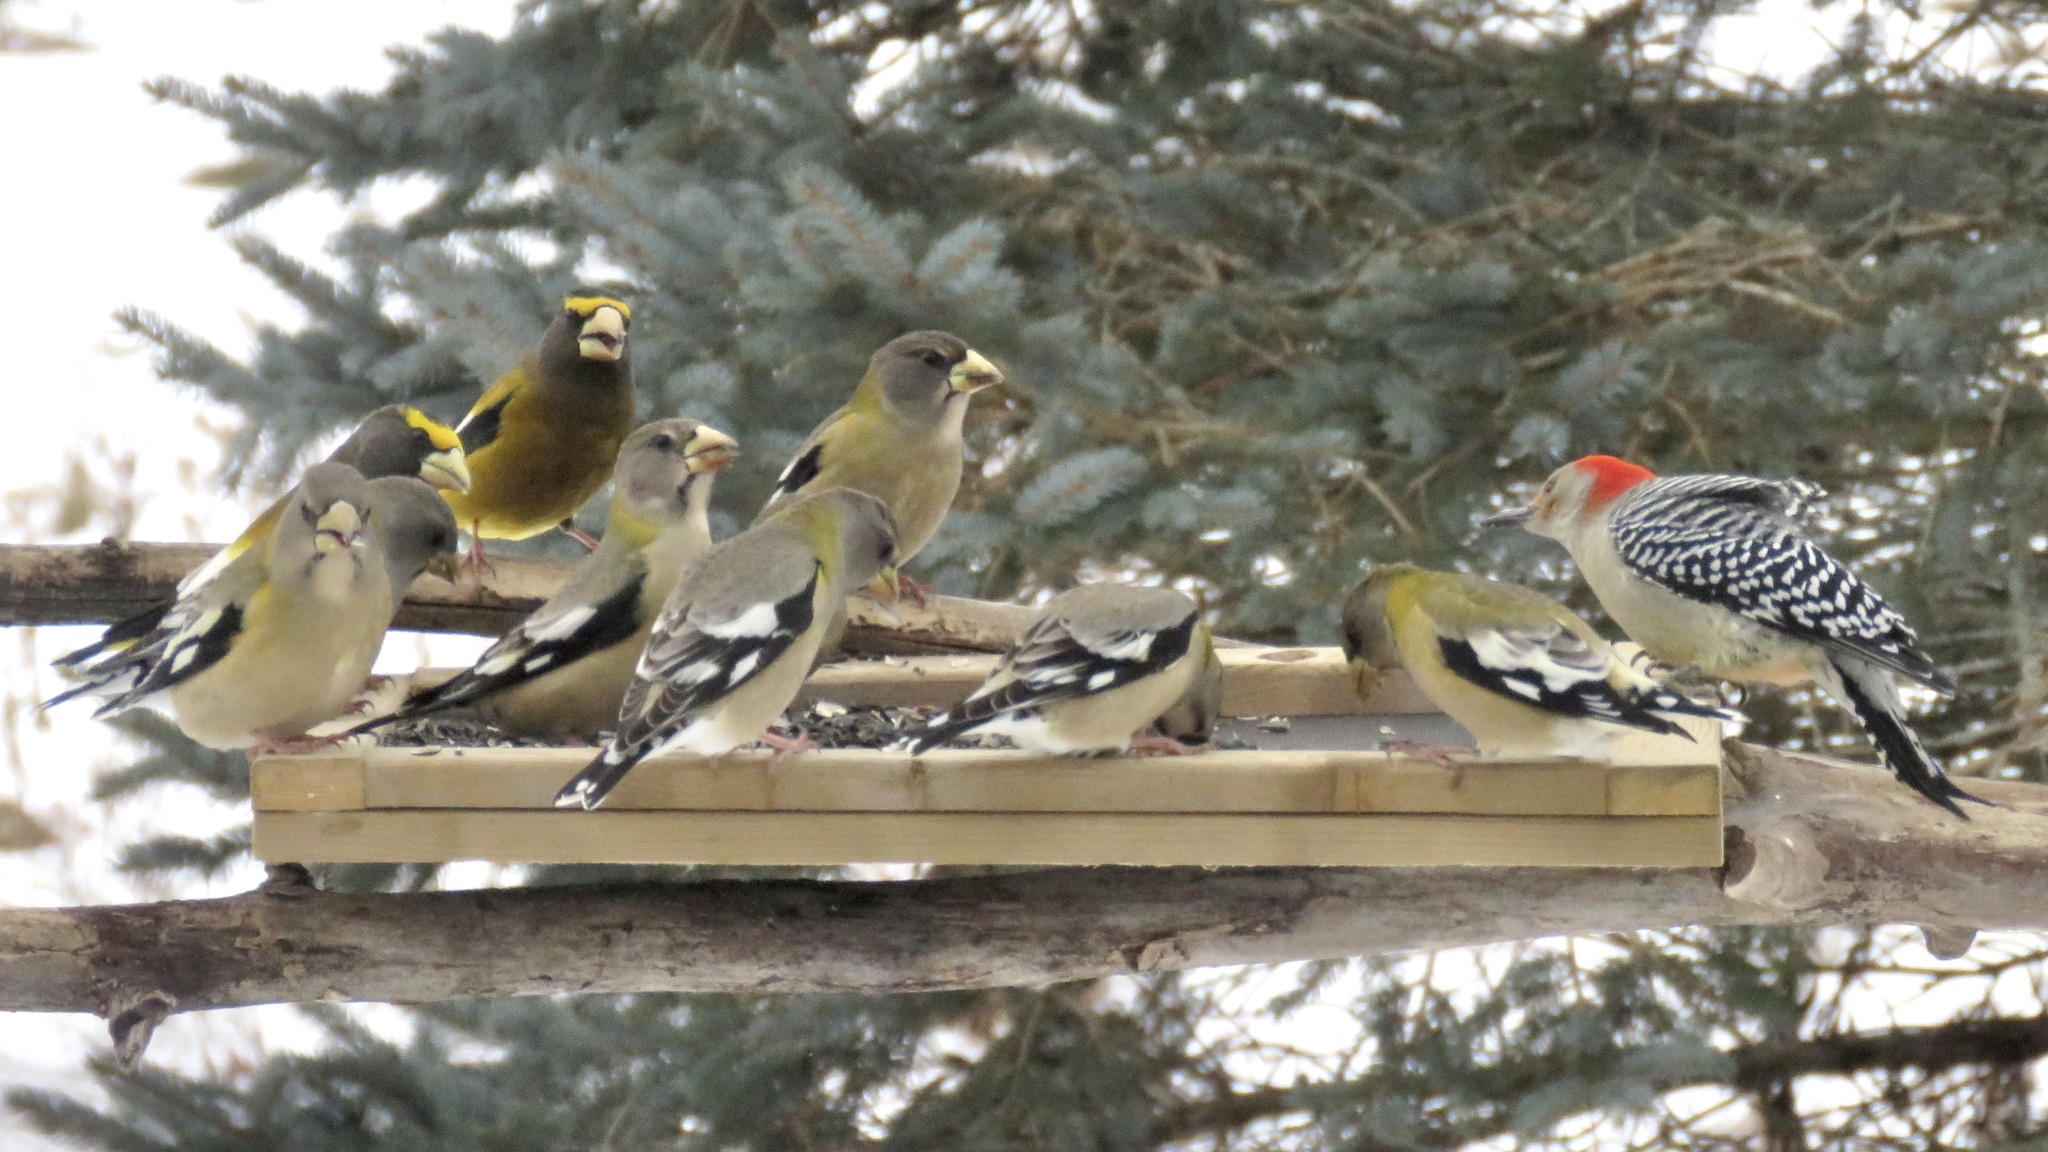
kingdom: Animalia
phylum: Chordata
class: Aves
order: Passeriformes
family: Fringillidae
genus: Hesperiphona
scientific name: Hesperiphona vespertina
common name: Evening grosbeak
